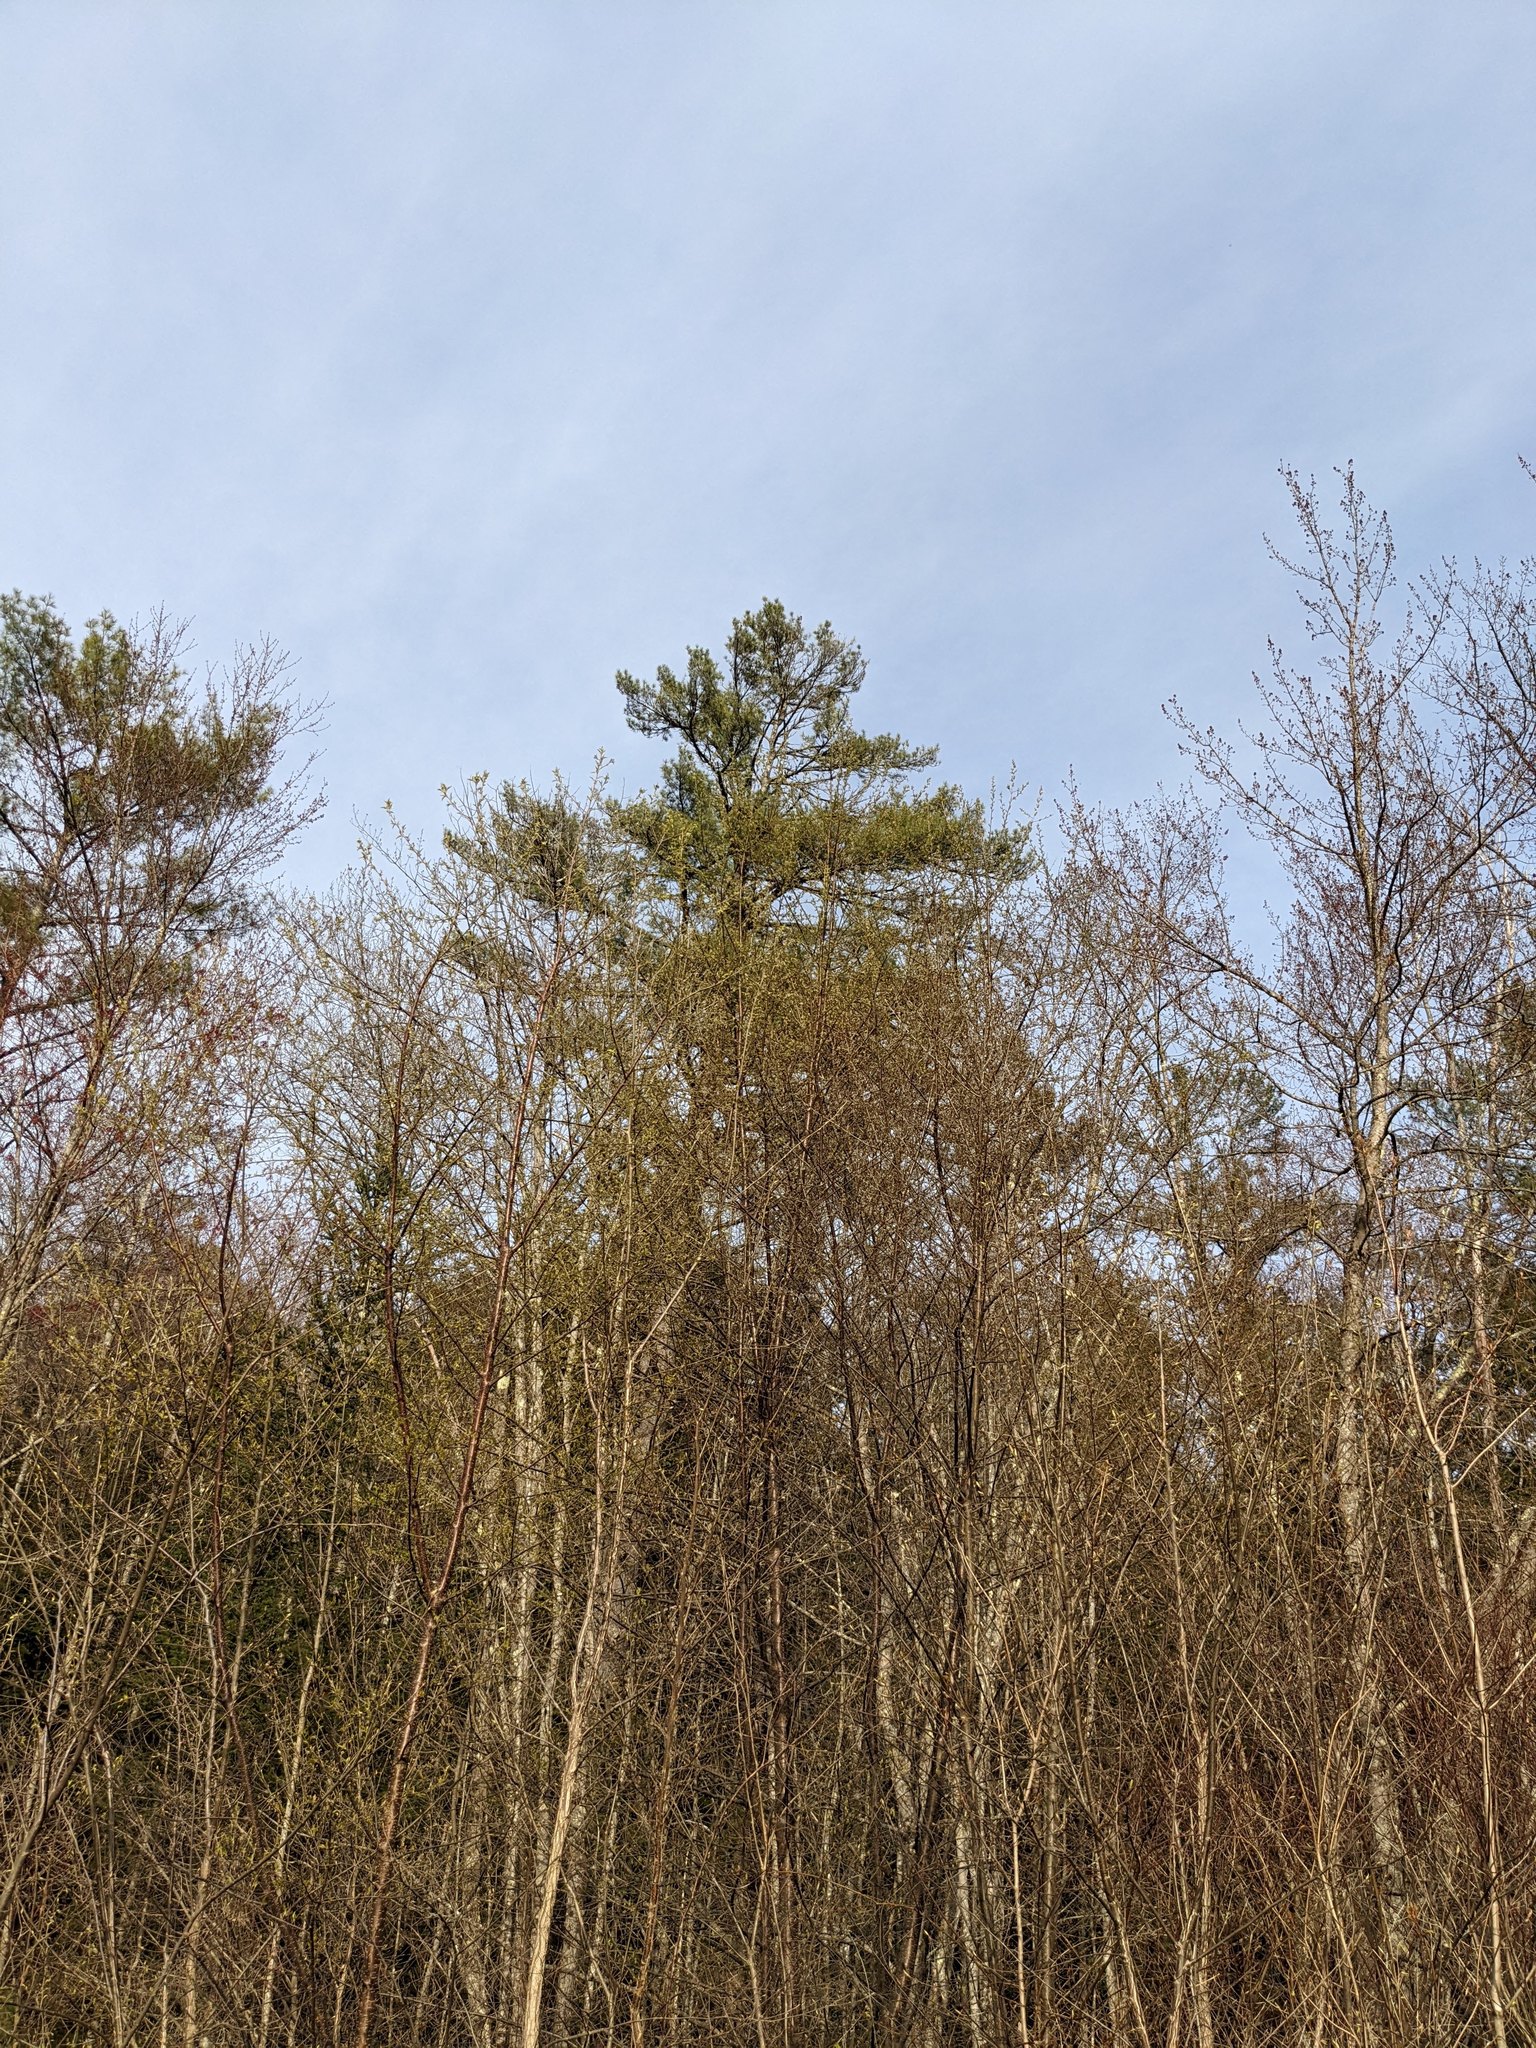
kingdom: Plantae
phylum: Tracheophyta
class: Pinopsida
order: Pinales
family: Pinaceae
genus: Pinus
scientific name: Pinus strobus
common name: Weymouth pine
